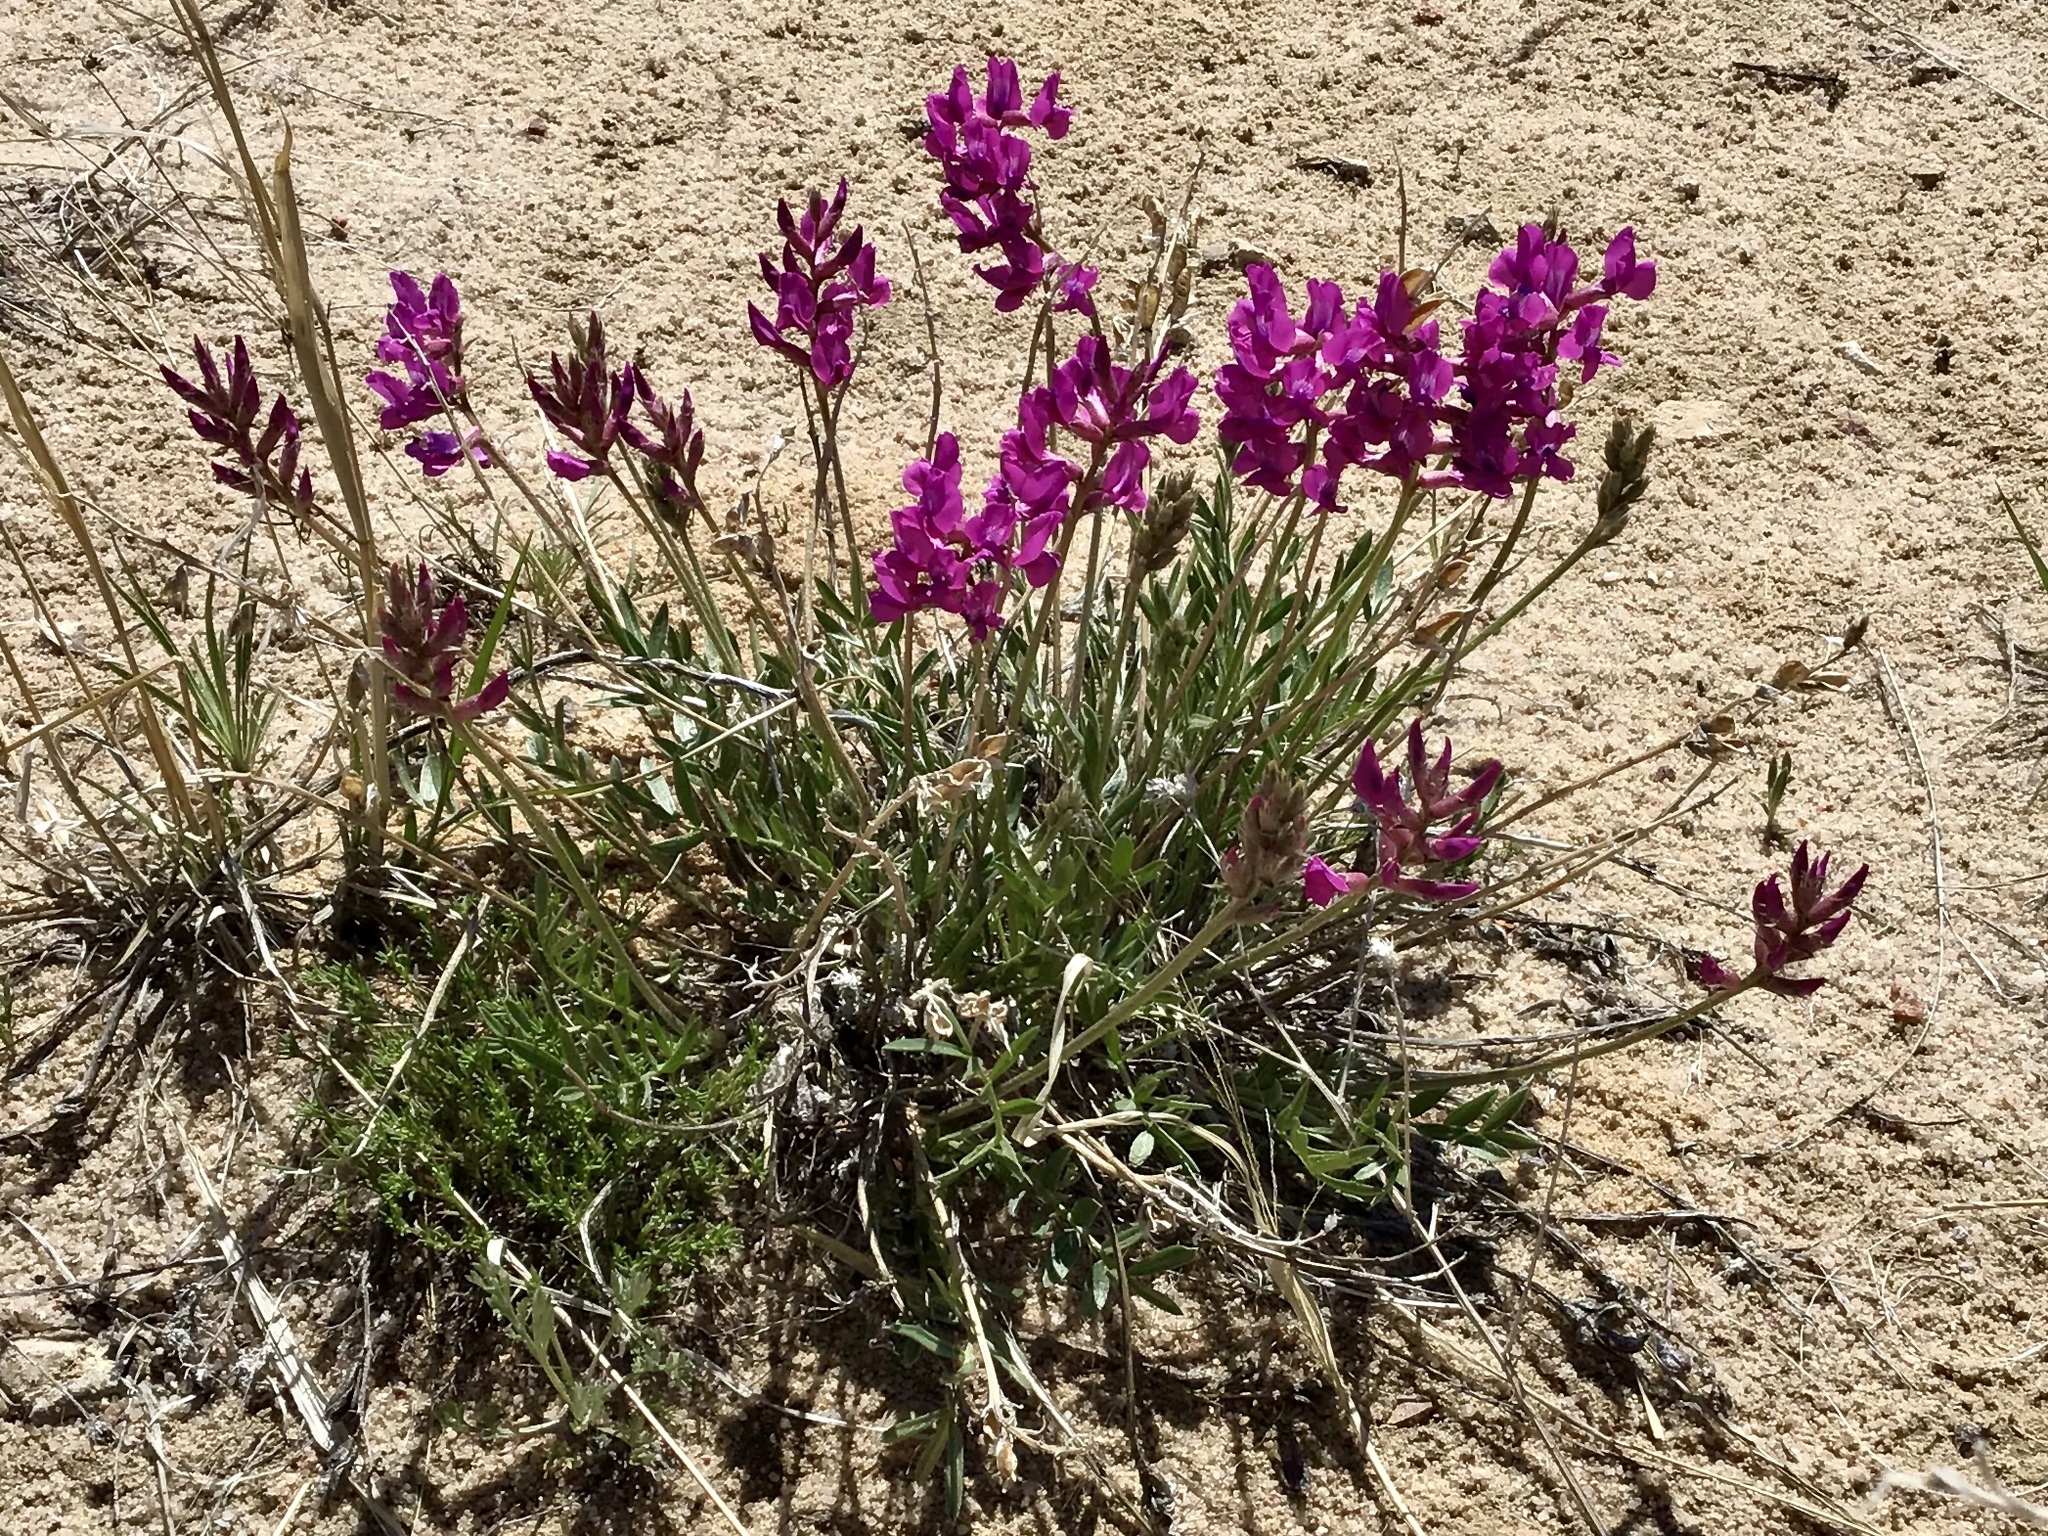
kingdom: Plantae
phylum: Tracheophyta
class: Magnoliopsida
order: Fabales
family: Fabaceae
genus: Oxytropis
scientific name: Oxytropis lambertii
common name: Purple locoweed
